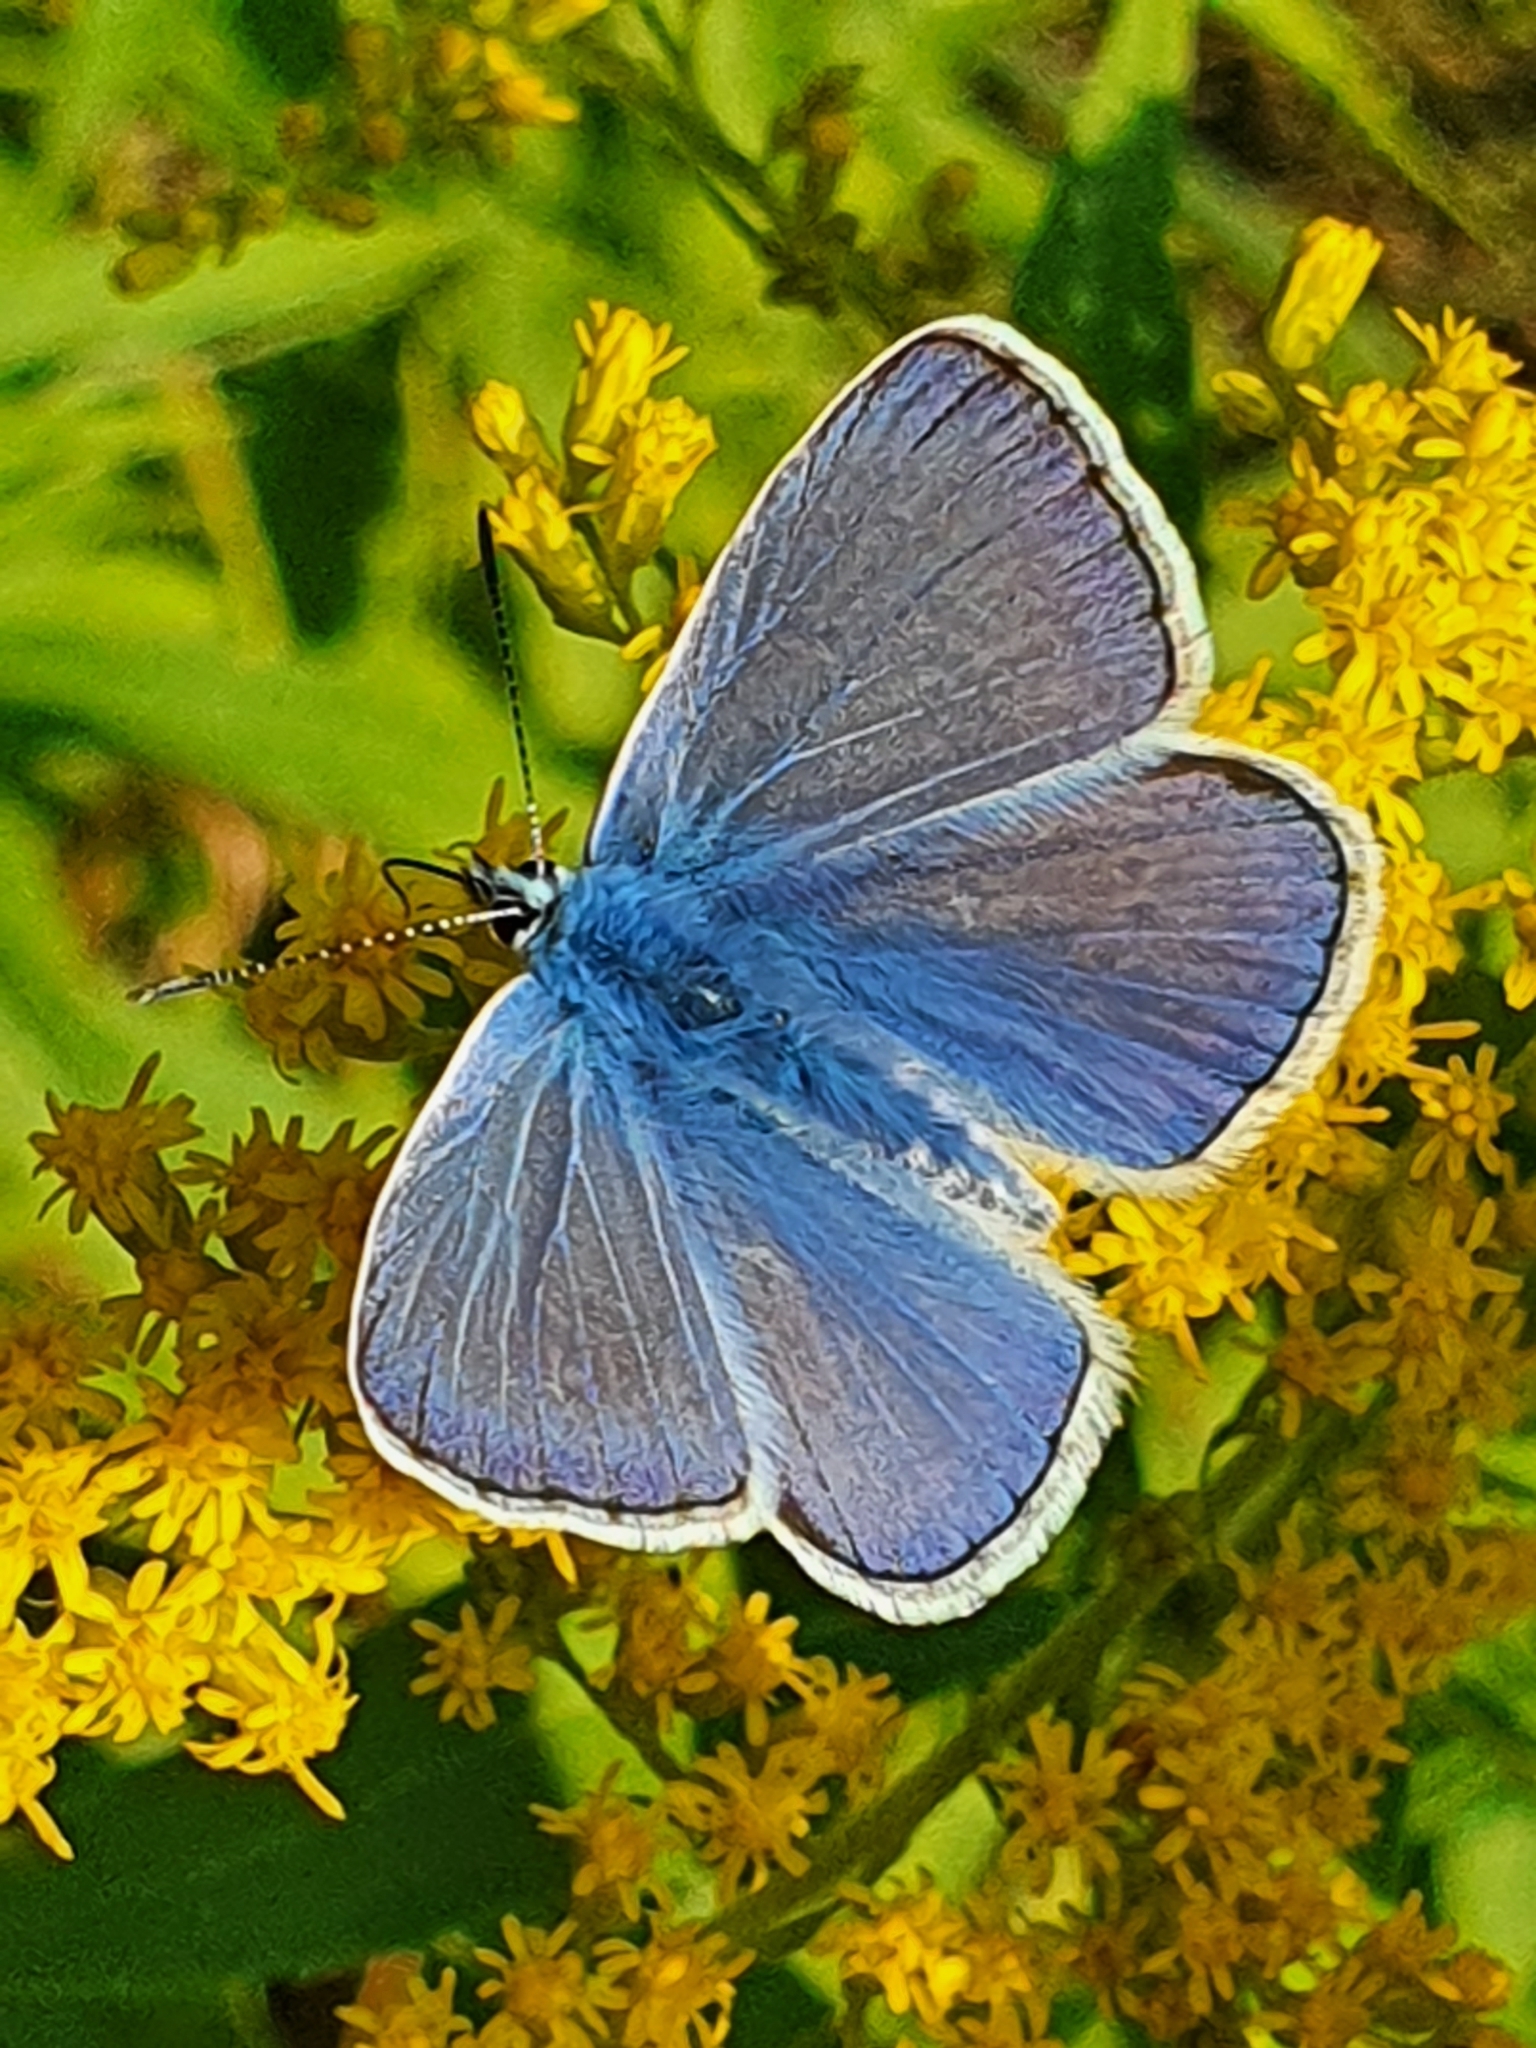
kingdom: Animalia
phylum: Arthropoda
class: Insecta
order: Lepidoptera
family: Lycaenidae
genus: Polyommatus
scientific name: Polyommatus icarus
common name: Common blue
